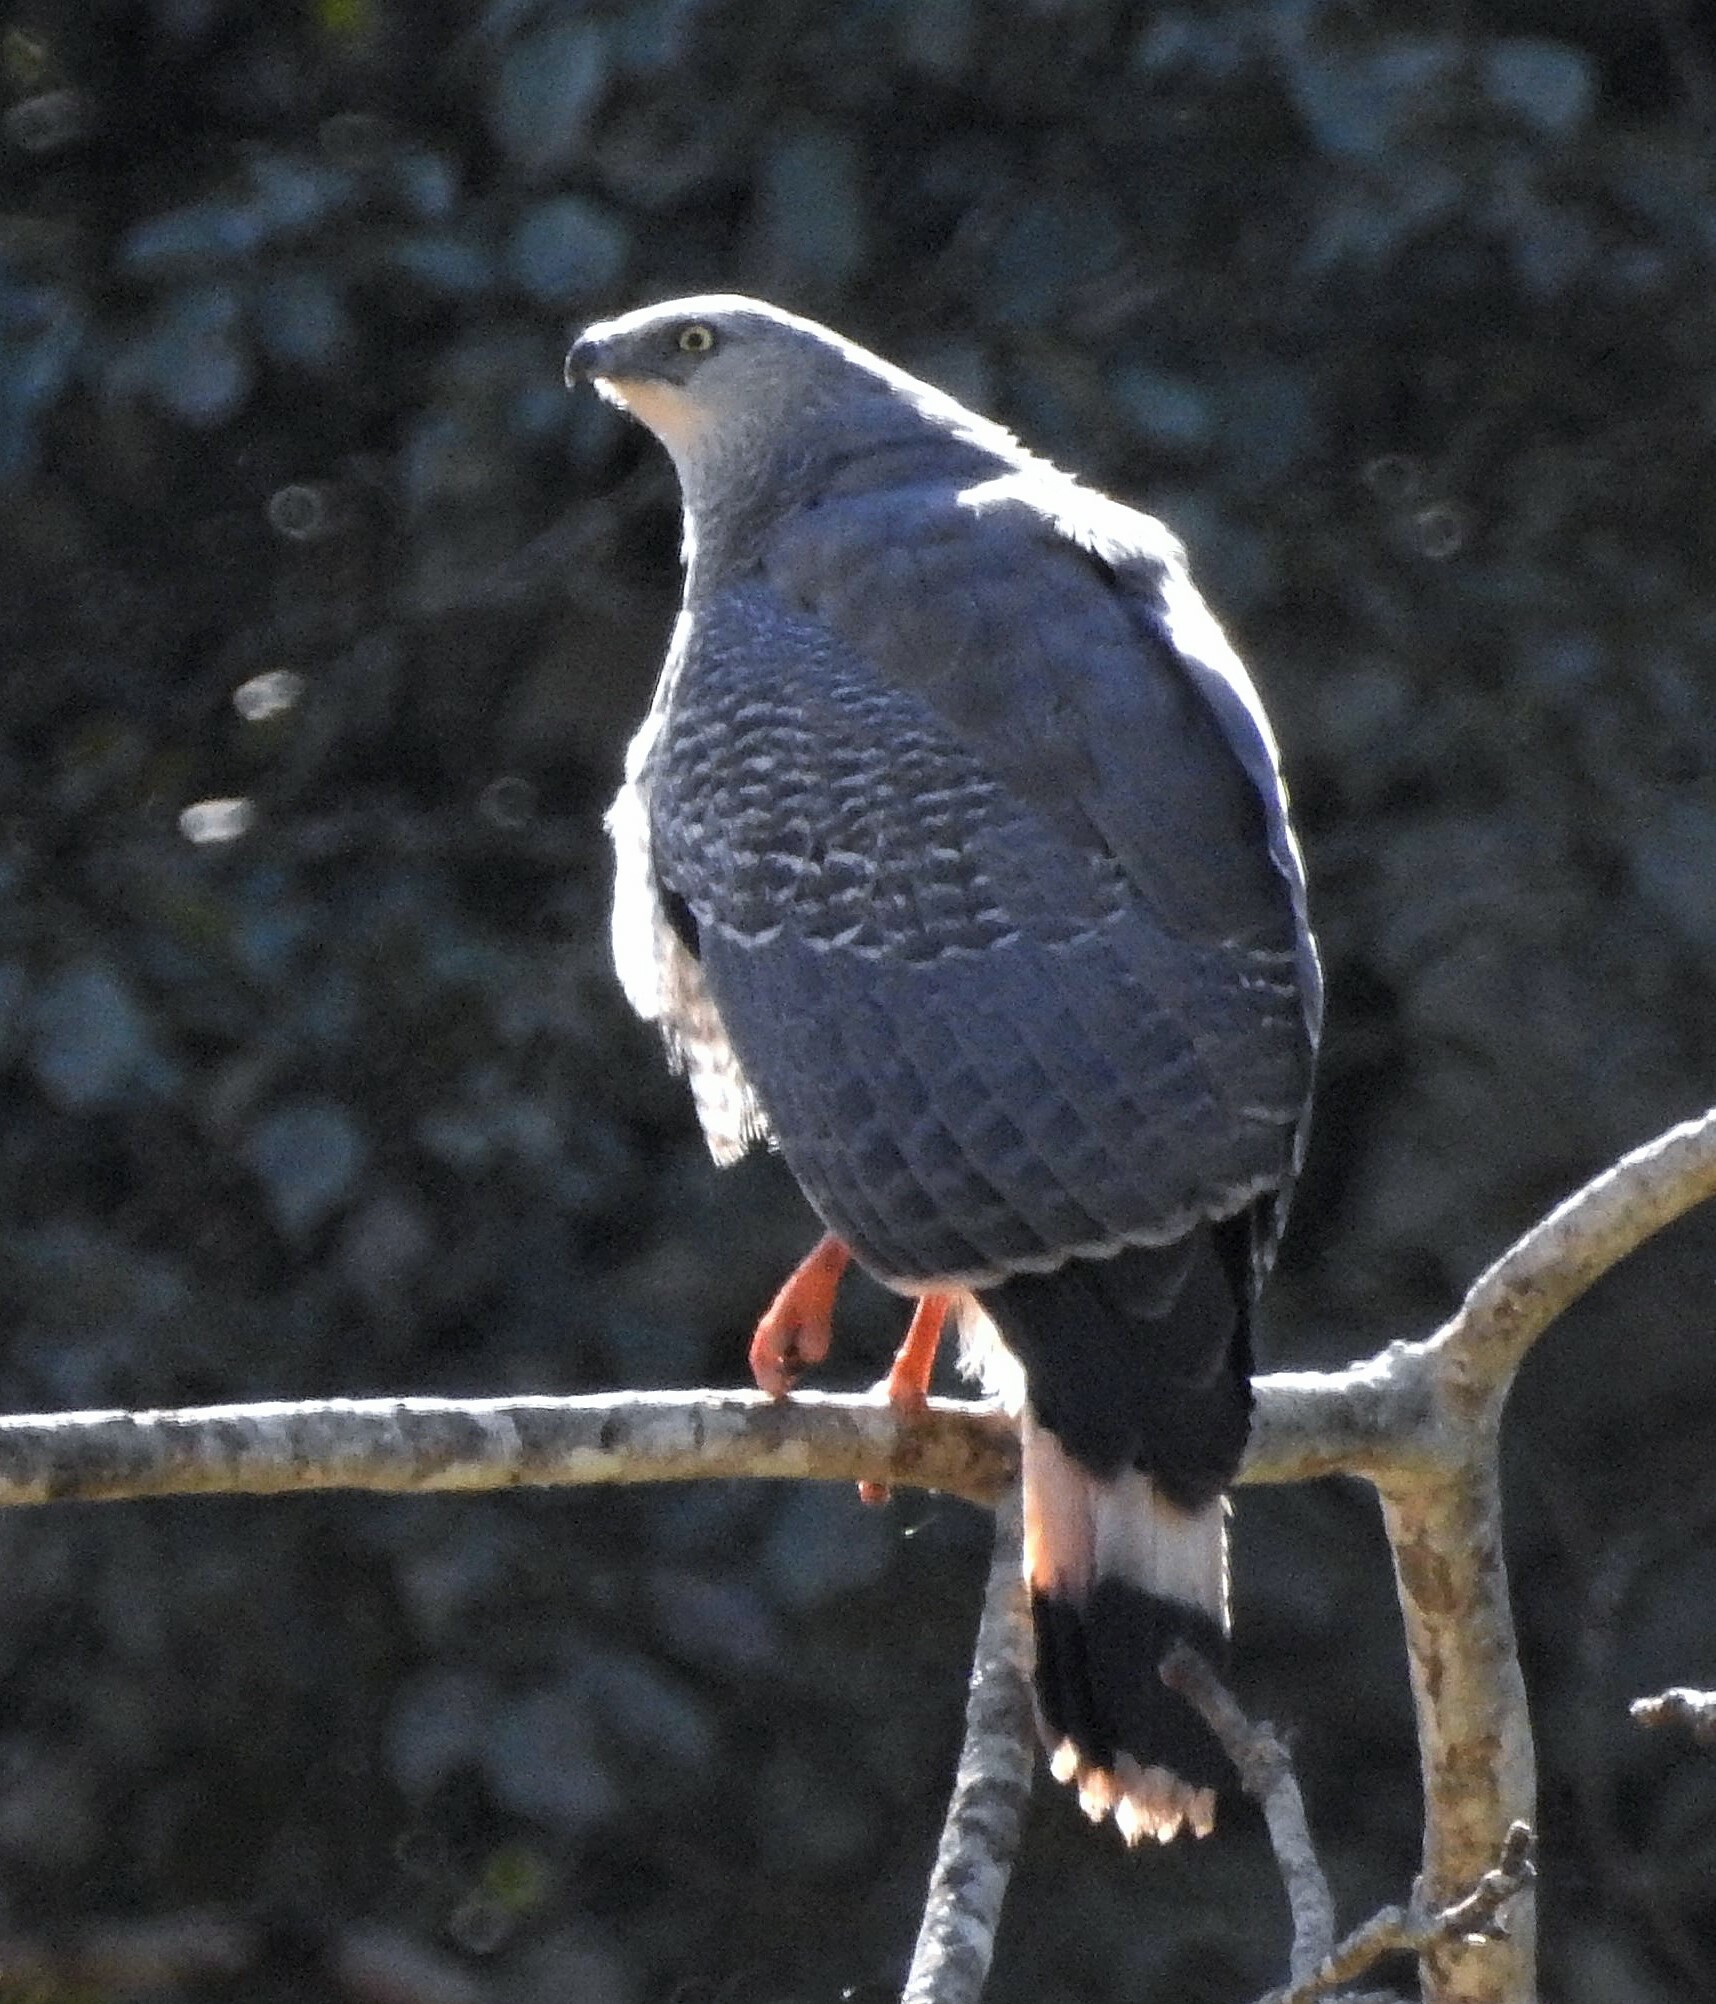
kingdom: Animalia
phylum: Chordata
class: Aves
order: Accipitriformes
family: Accipitridae
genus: Geranospiza
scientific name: Geranospiza caerulescens
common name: Crane hawk
